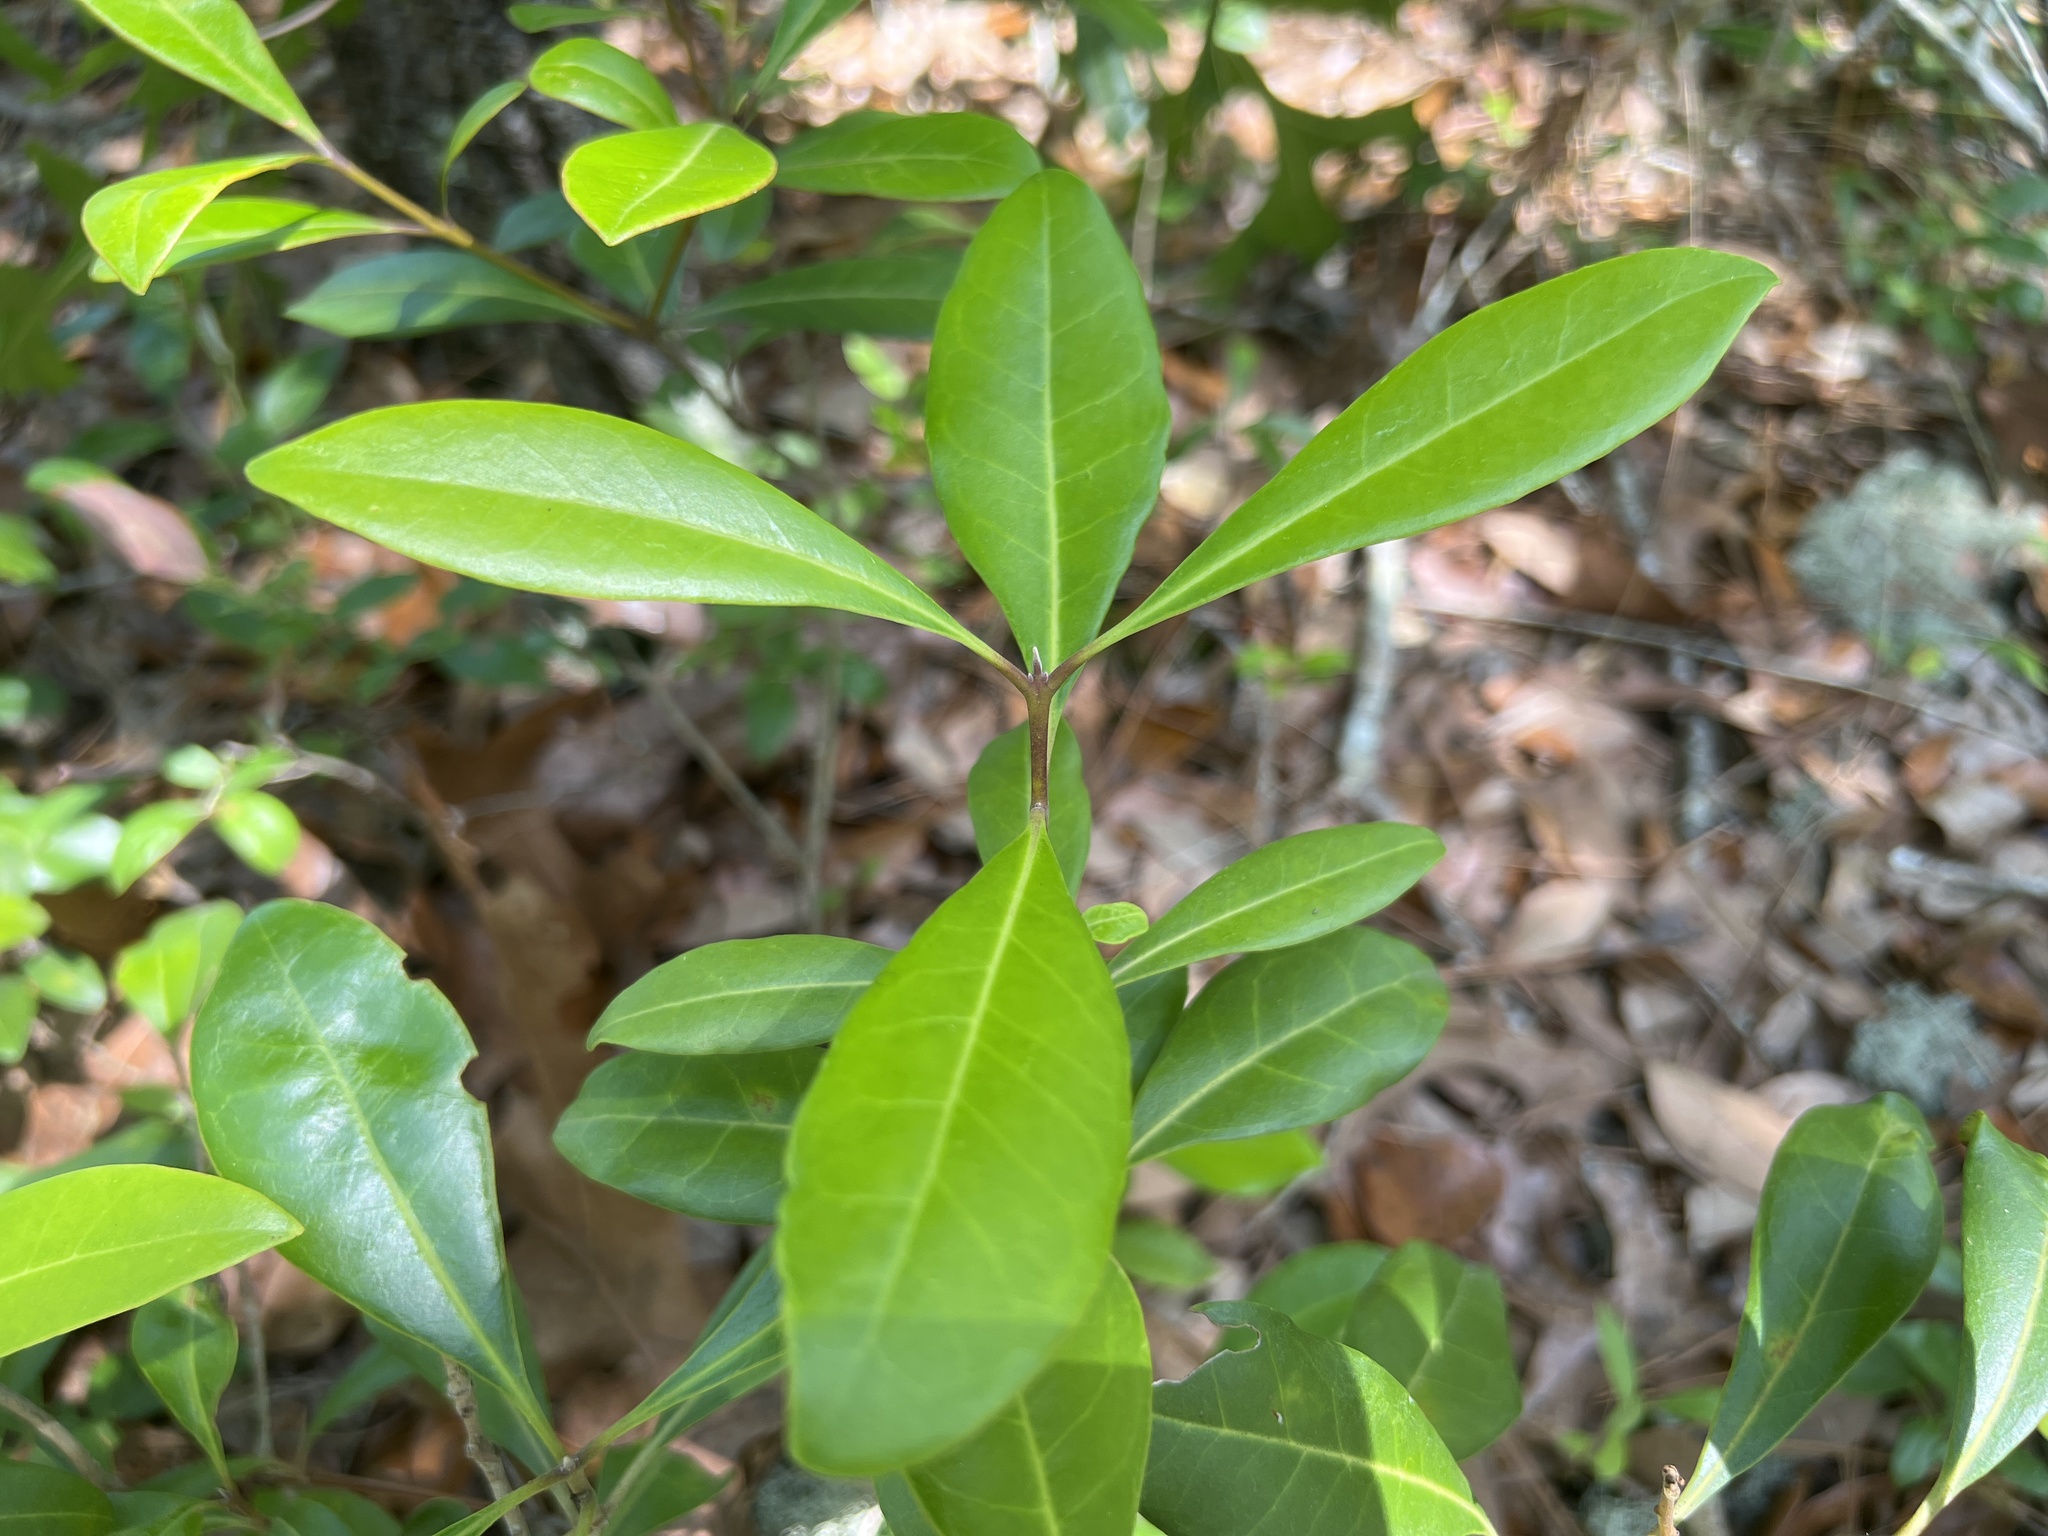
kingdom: Plantae
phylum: Tracheophyta
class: Magnoliopsida
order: Lamiales
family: Oleaceae
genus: Cartrema
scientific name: Cartrema americana
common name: Devilwood
